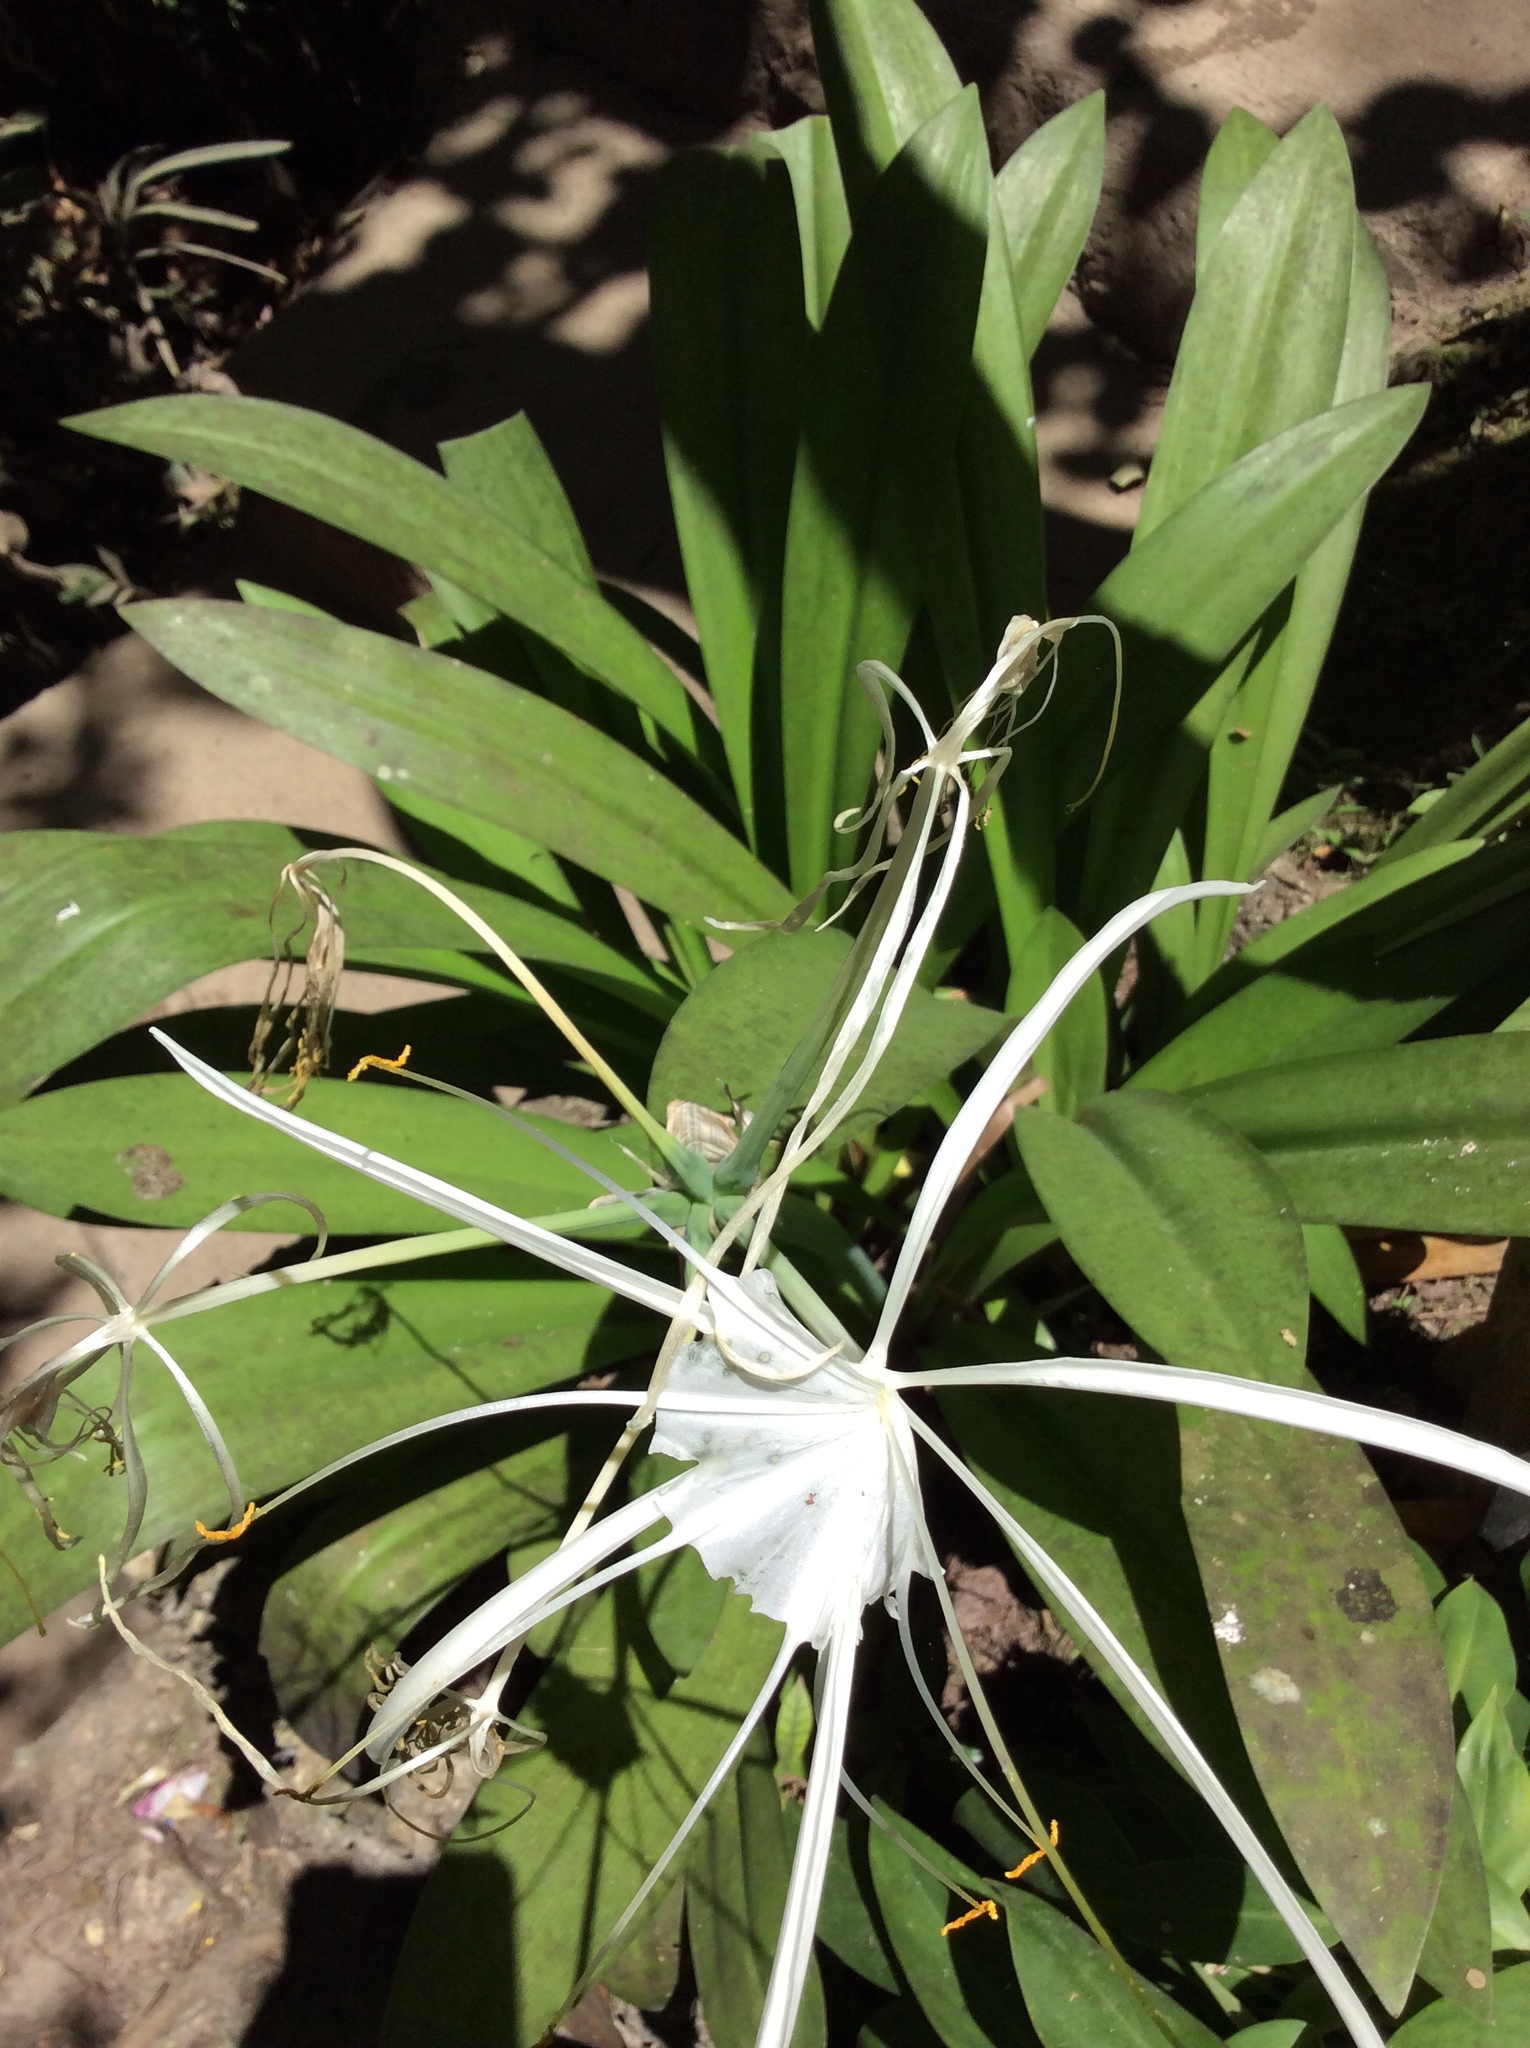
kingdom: Plantae
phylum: Tracheophyta
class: Liliopsida
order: Asparagales
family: Amaryllidaceae
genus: Hymenocallis
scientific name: Hymenocallis littoralis
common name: Beach spiderlily
